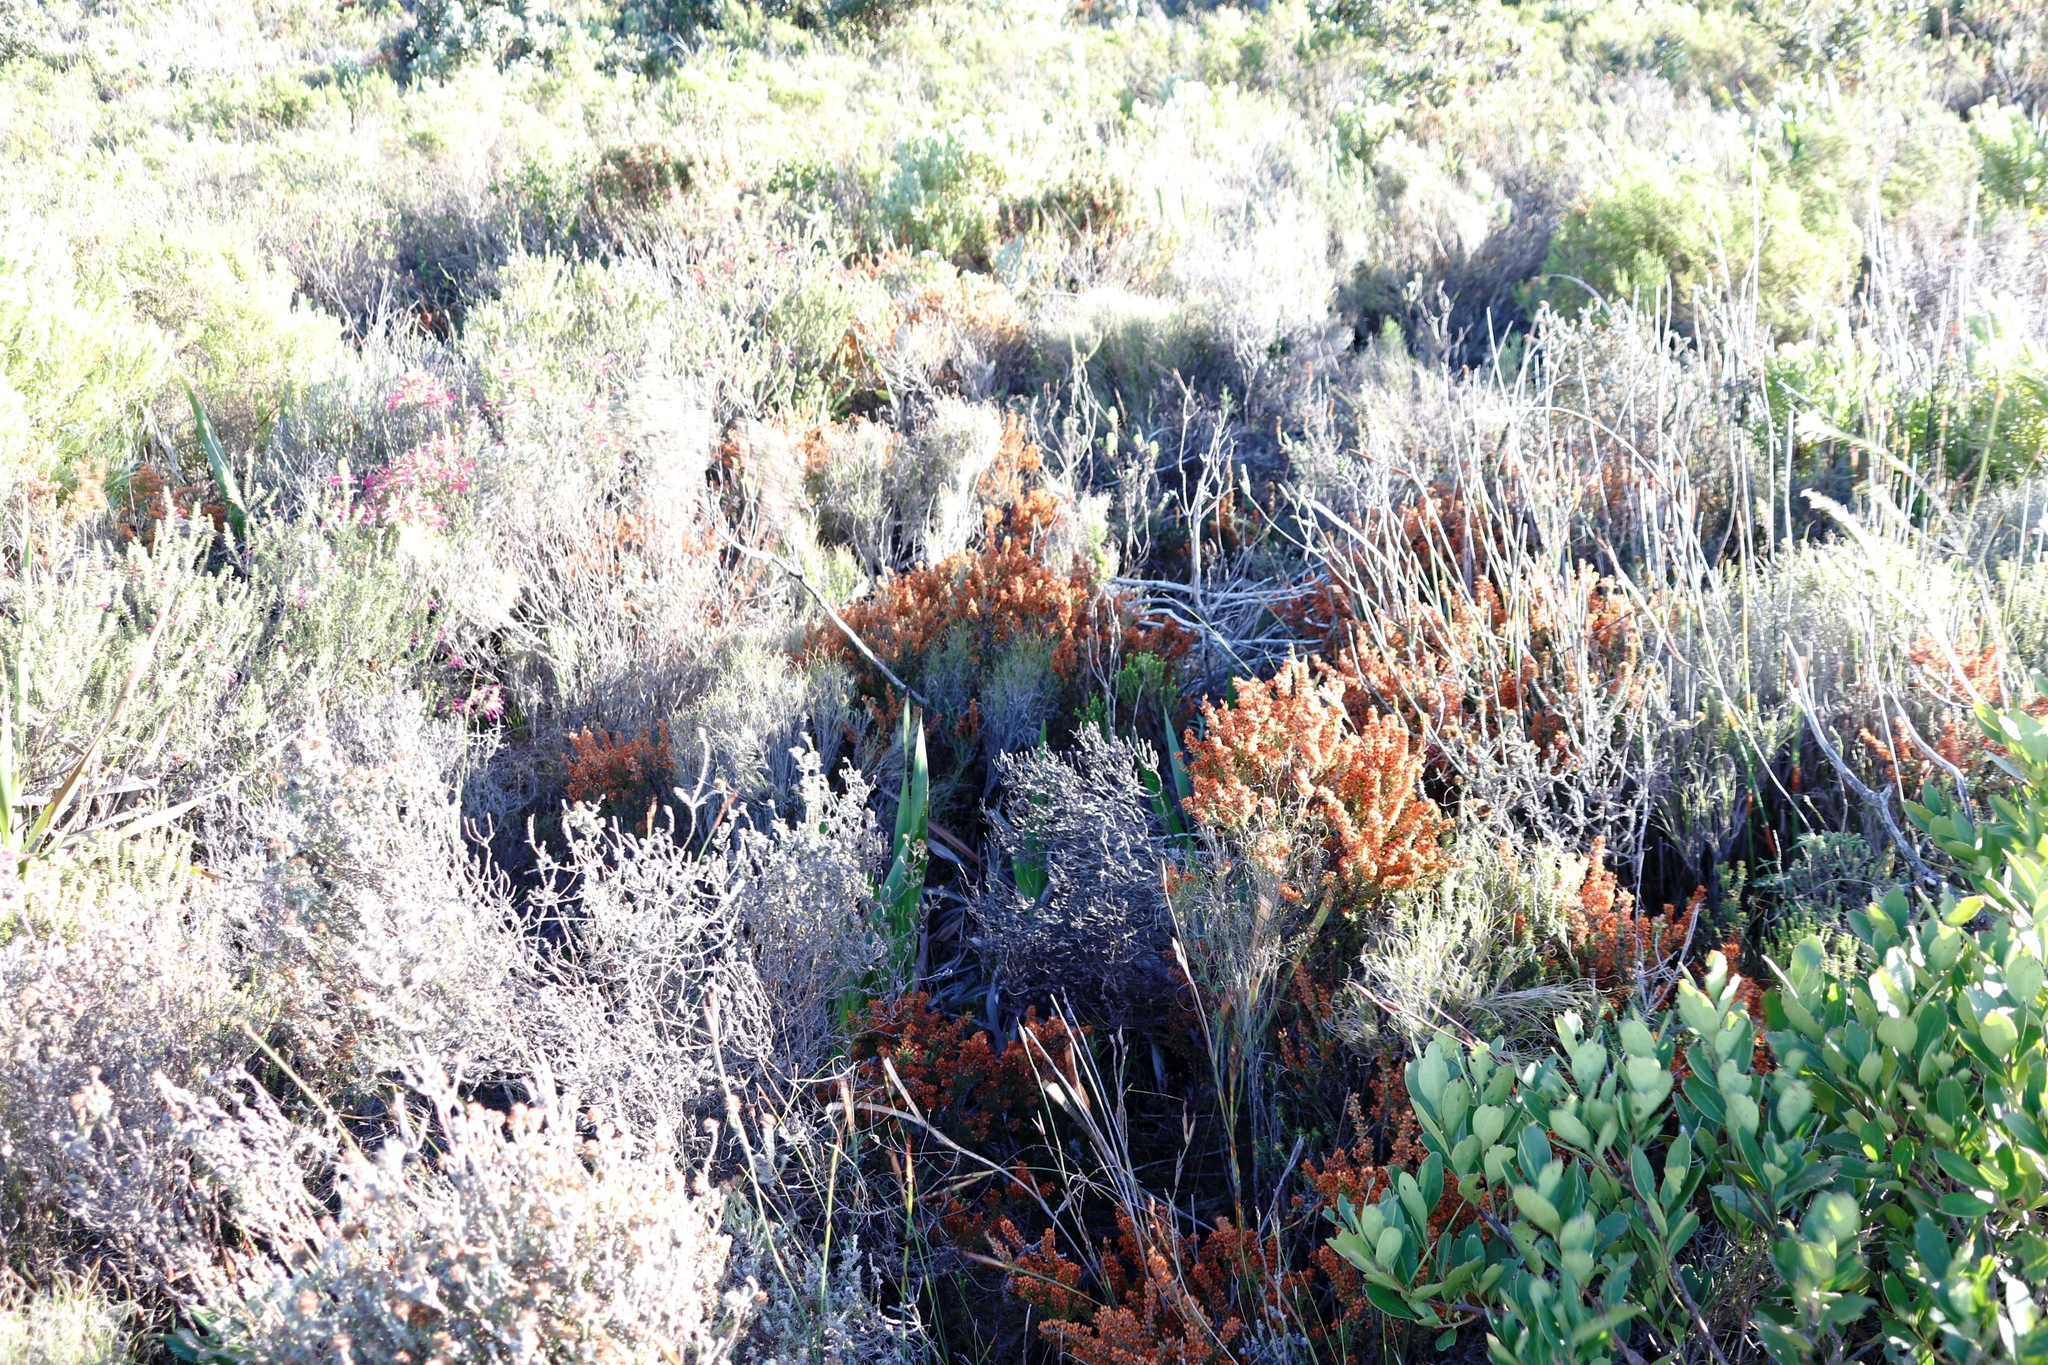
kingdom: Plantae
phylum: Tracheophyta
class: Magnoliopsida
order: Ericales
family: Ericaceae
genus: Erica
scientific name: Erica nudiflora
